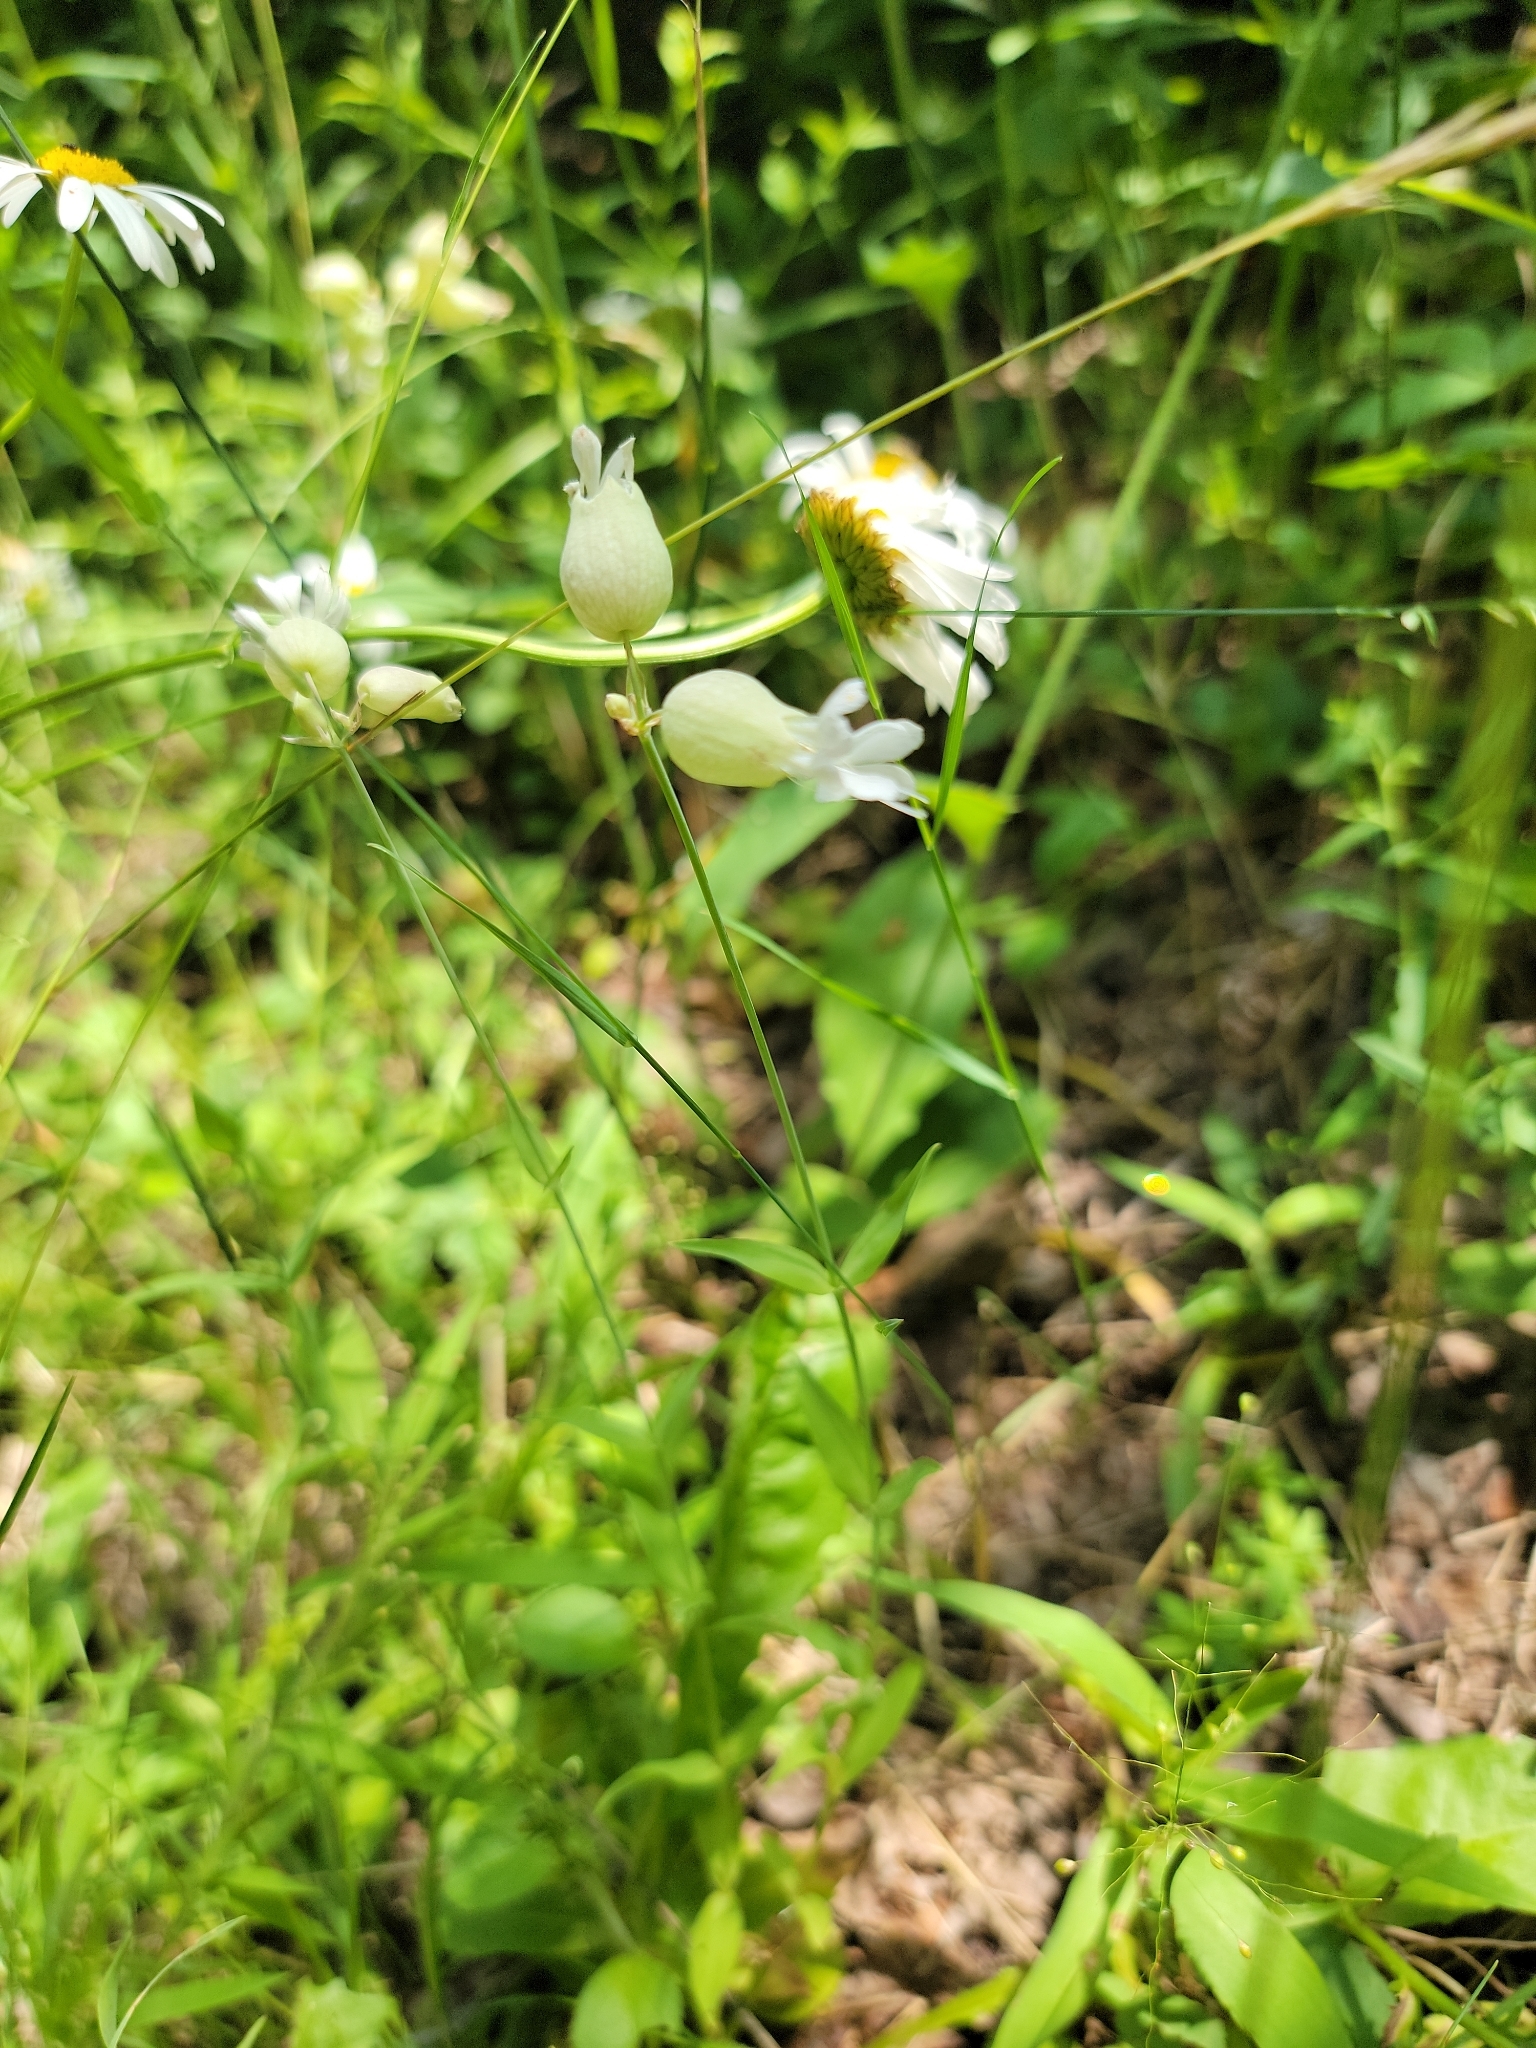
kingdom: Plantae
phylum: Tracheophyta
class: Magnoliopsida
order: Caryophyllales
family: Caryophyllaceae
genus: Silene
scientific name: Silene vulgaris
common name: Bladder campion
